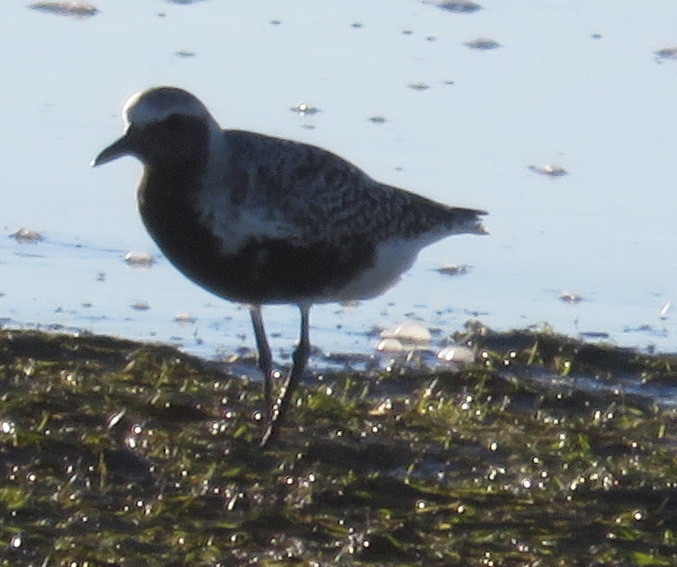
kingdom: Animalia
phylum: Chordata
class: Aves
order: Charadriiformes
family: Charadriidae
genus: Pluvialis
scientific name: Pluvialis squatarola
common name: Grey plover
